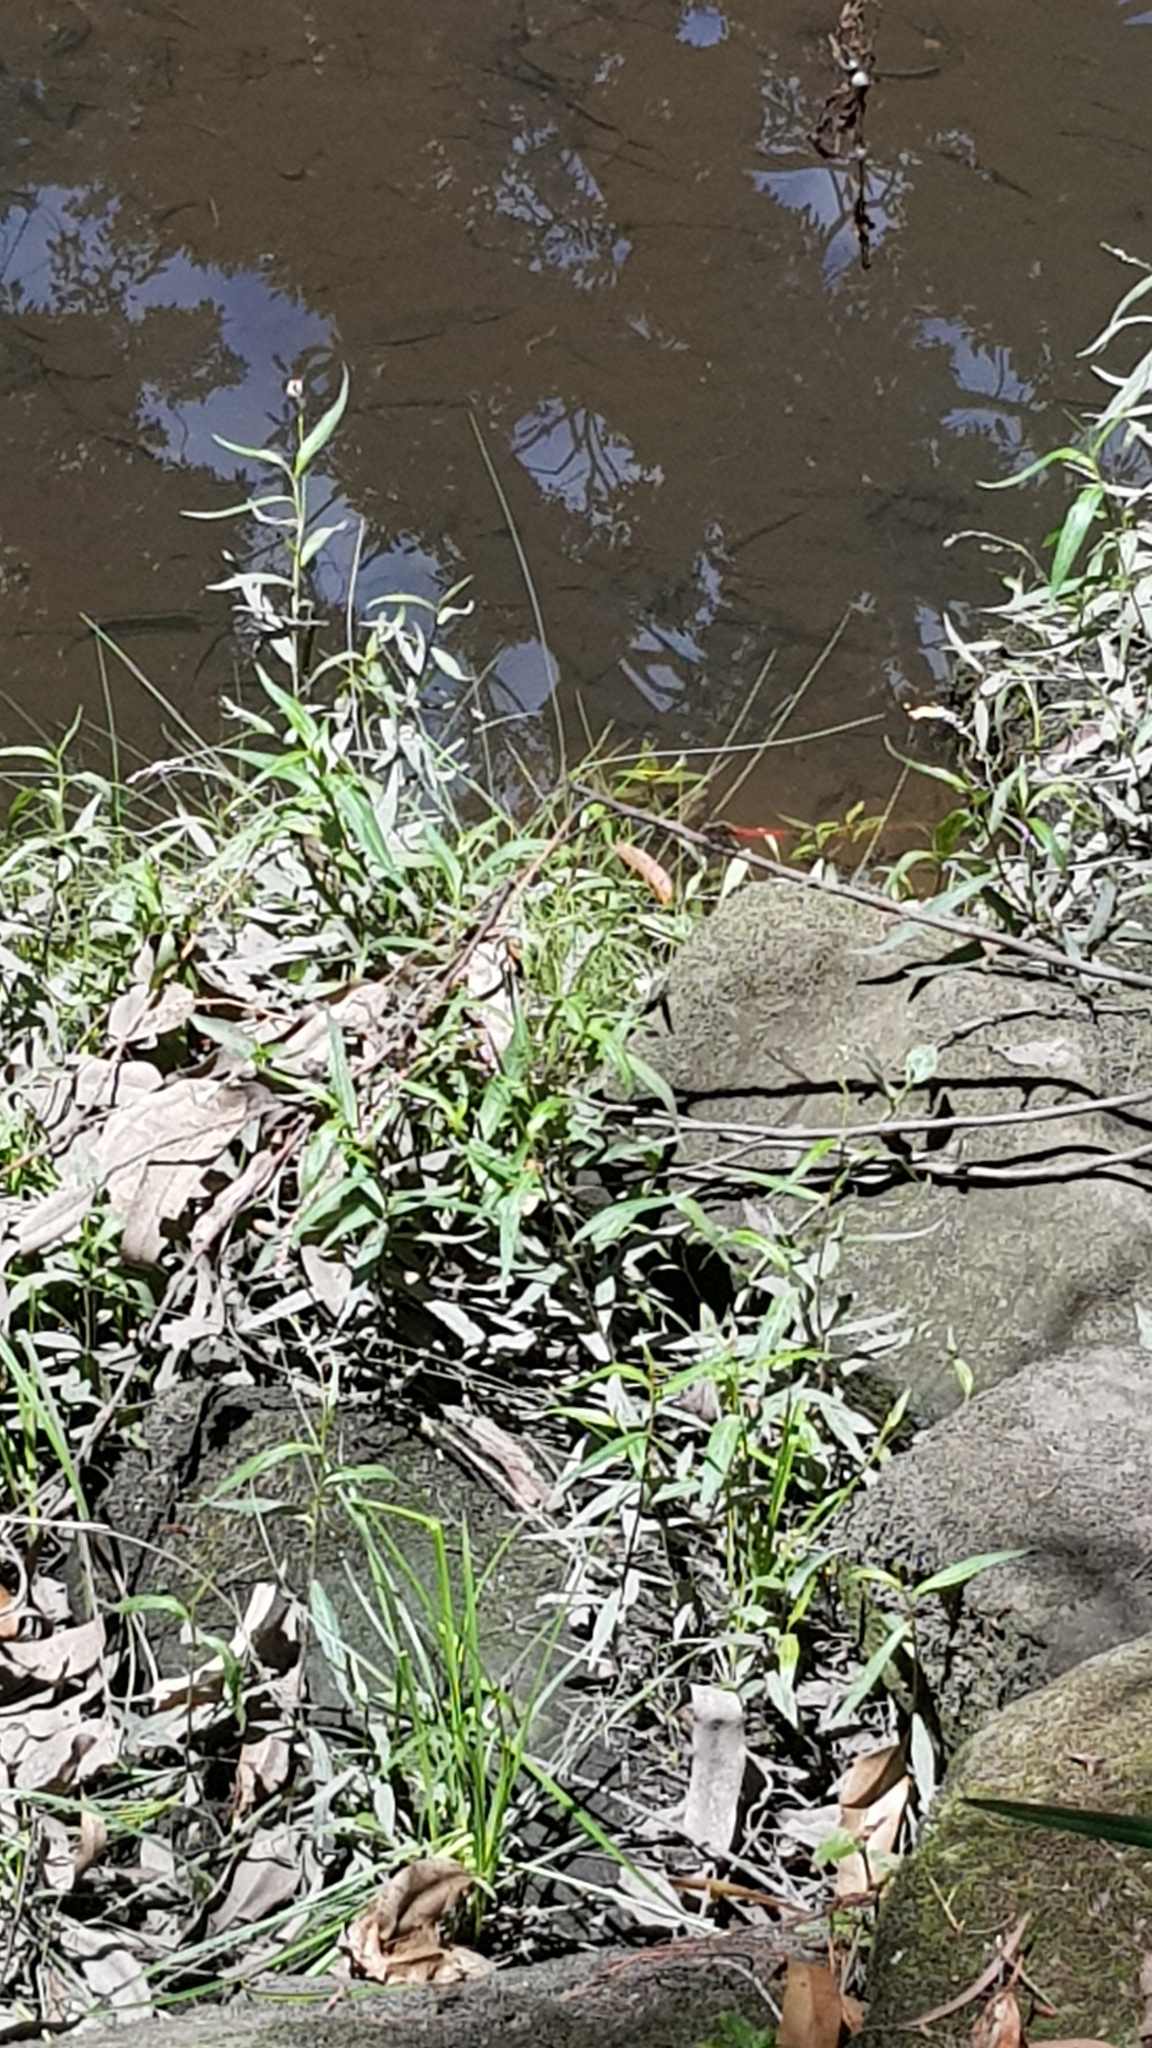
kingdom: Animalia
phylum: Arthropoda
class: Insecta
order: Odonata
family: Libellulidae
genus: Orthetrum
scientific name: Orthetrum villosovittatum
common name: Firery skimmer
